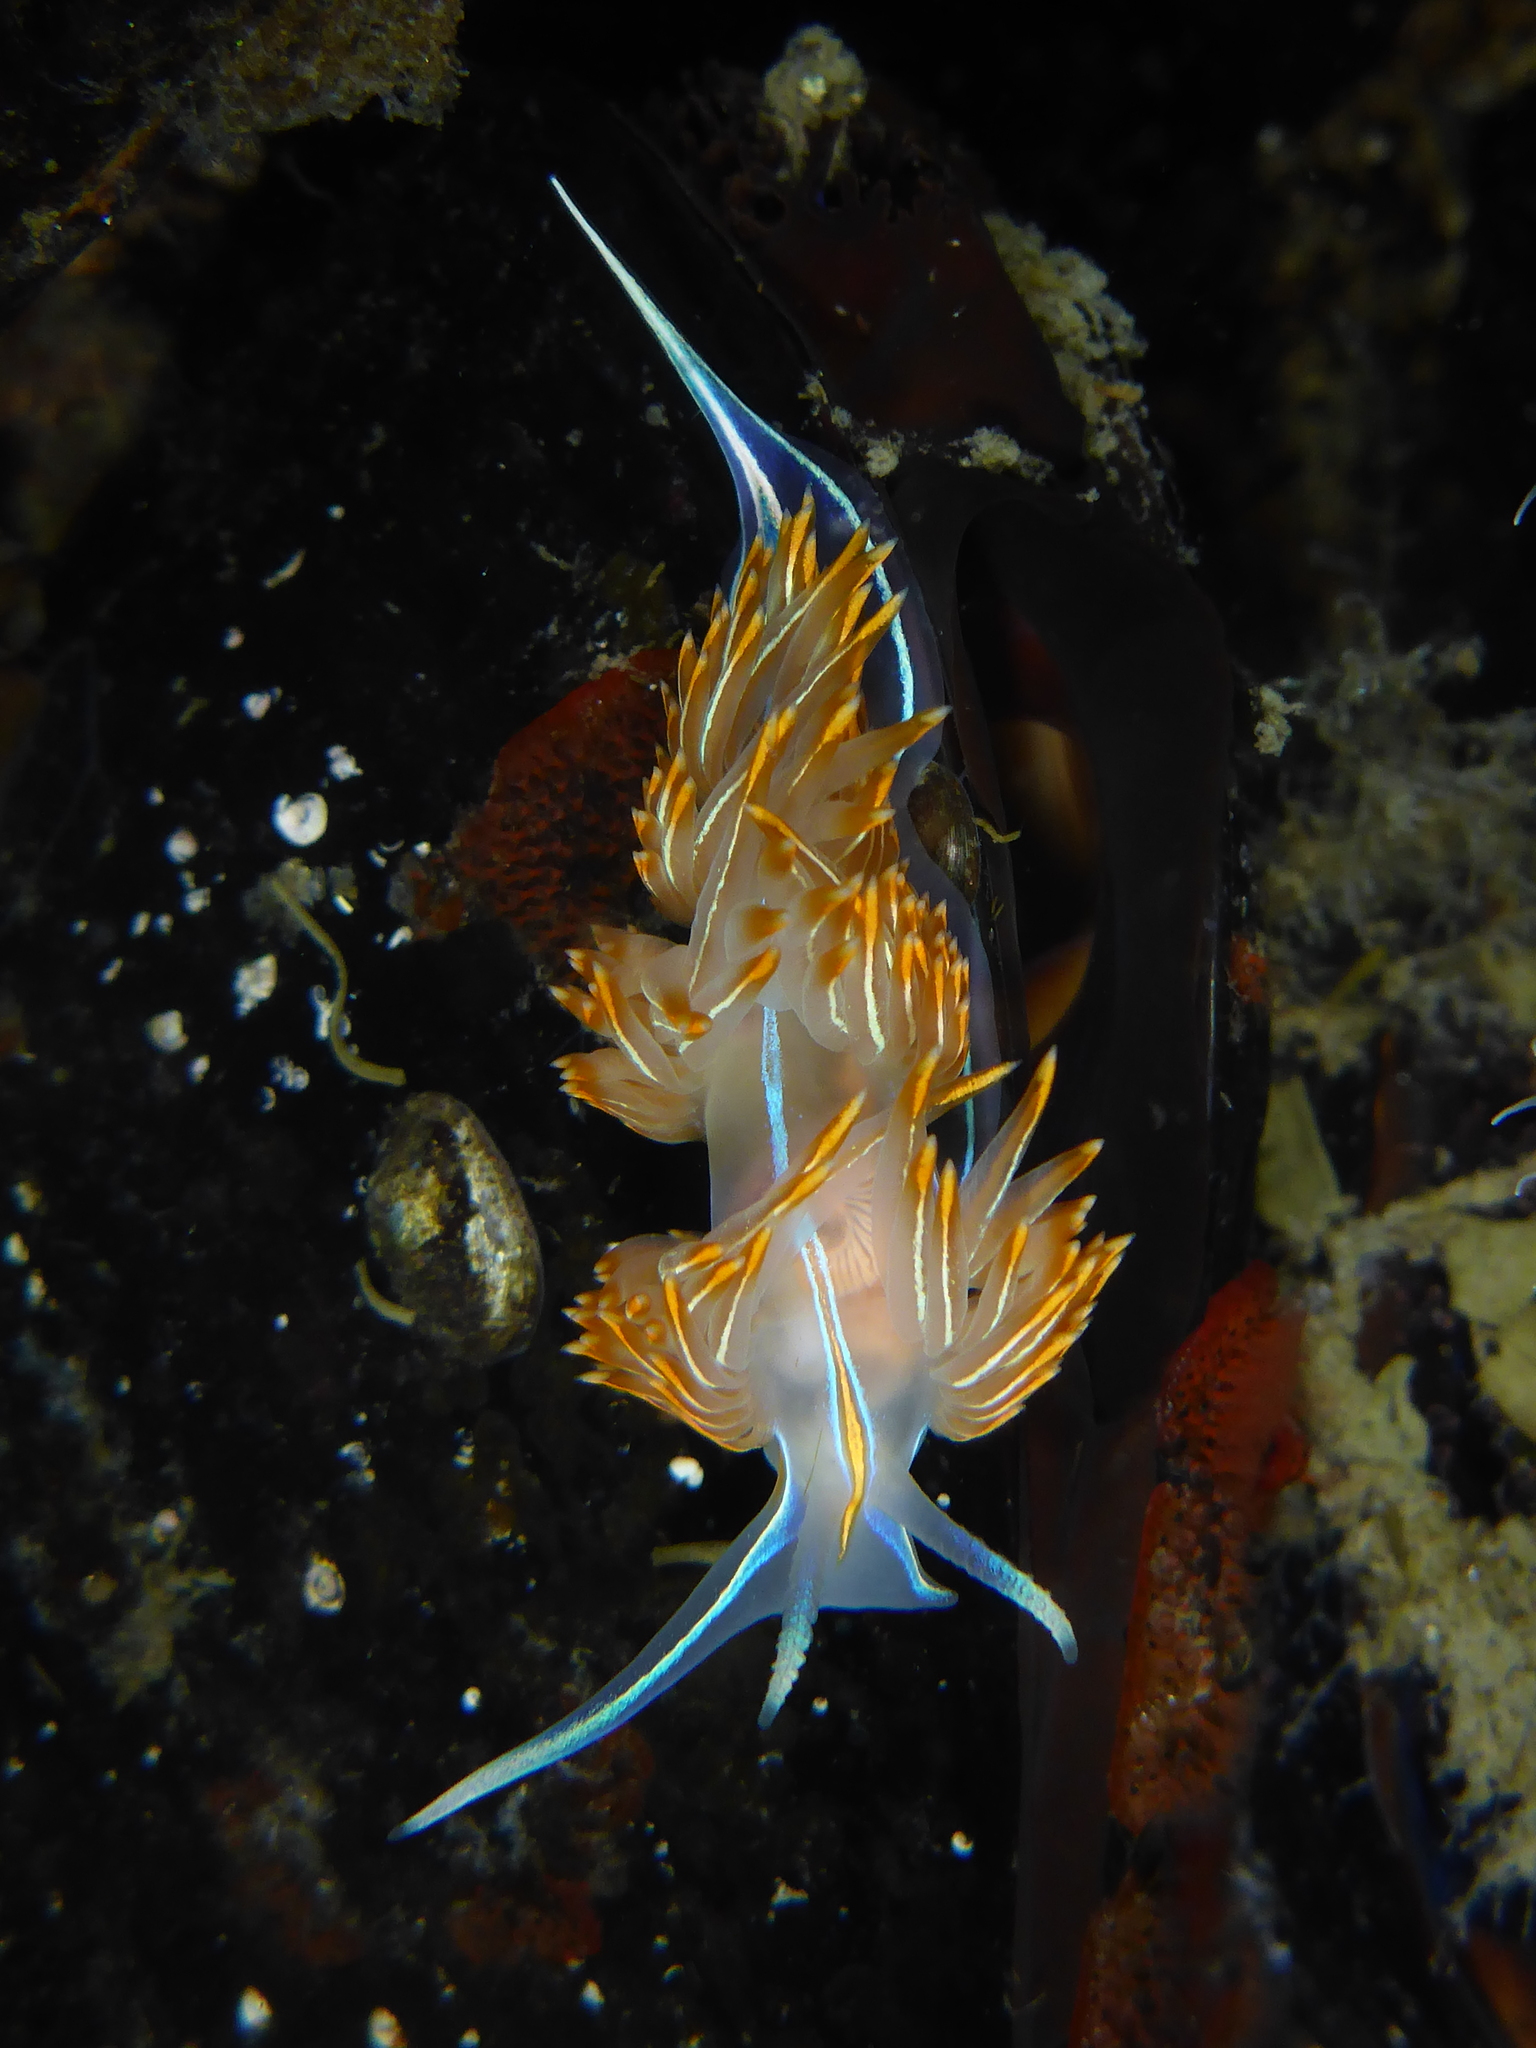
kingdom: Animalia
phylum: Mollusca
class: Gastropoda
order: Nudibranchia
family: Myrrhinidae
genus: Hermissenda
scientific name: Hermissenda crassicornis
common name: Hermissenda
